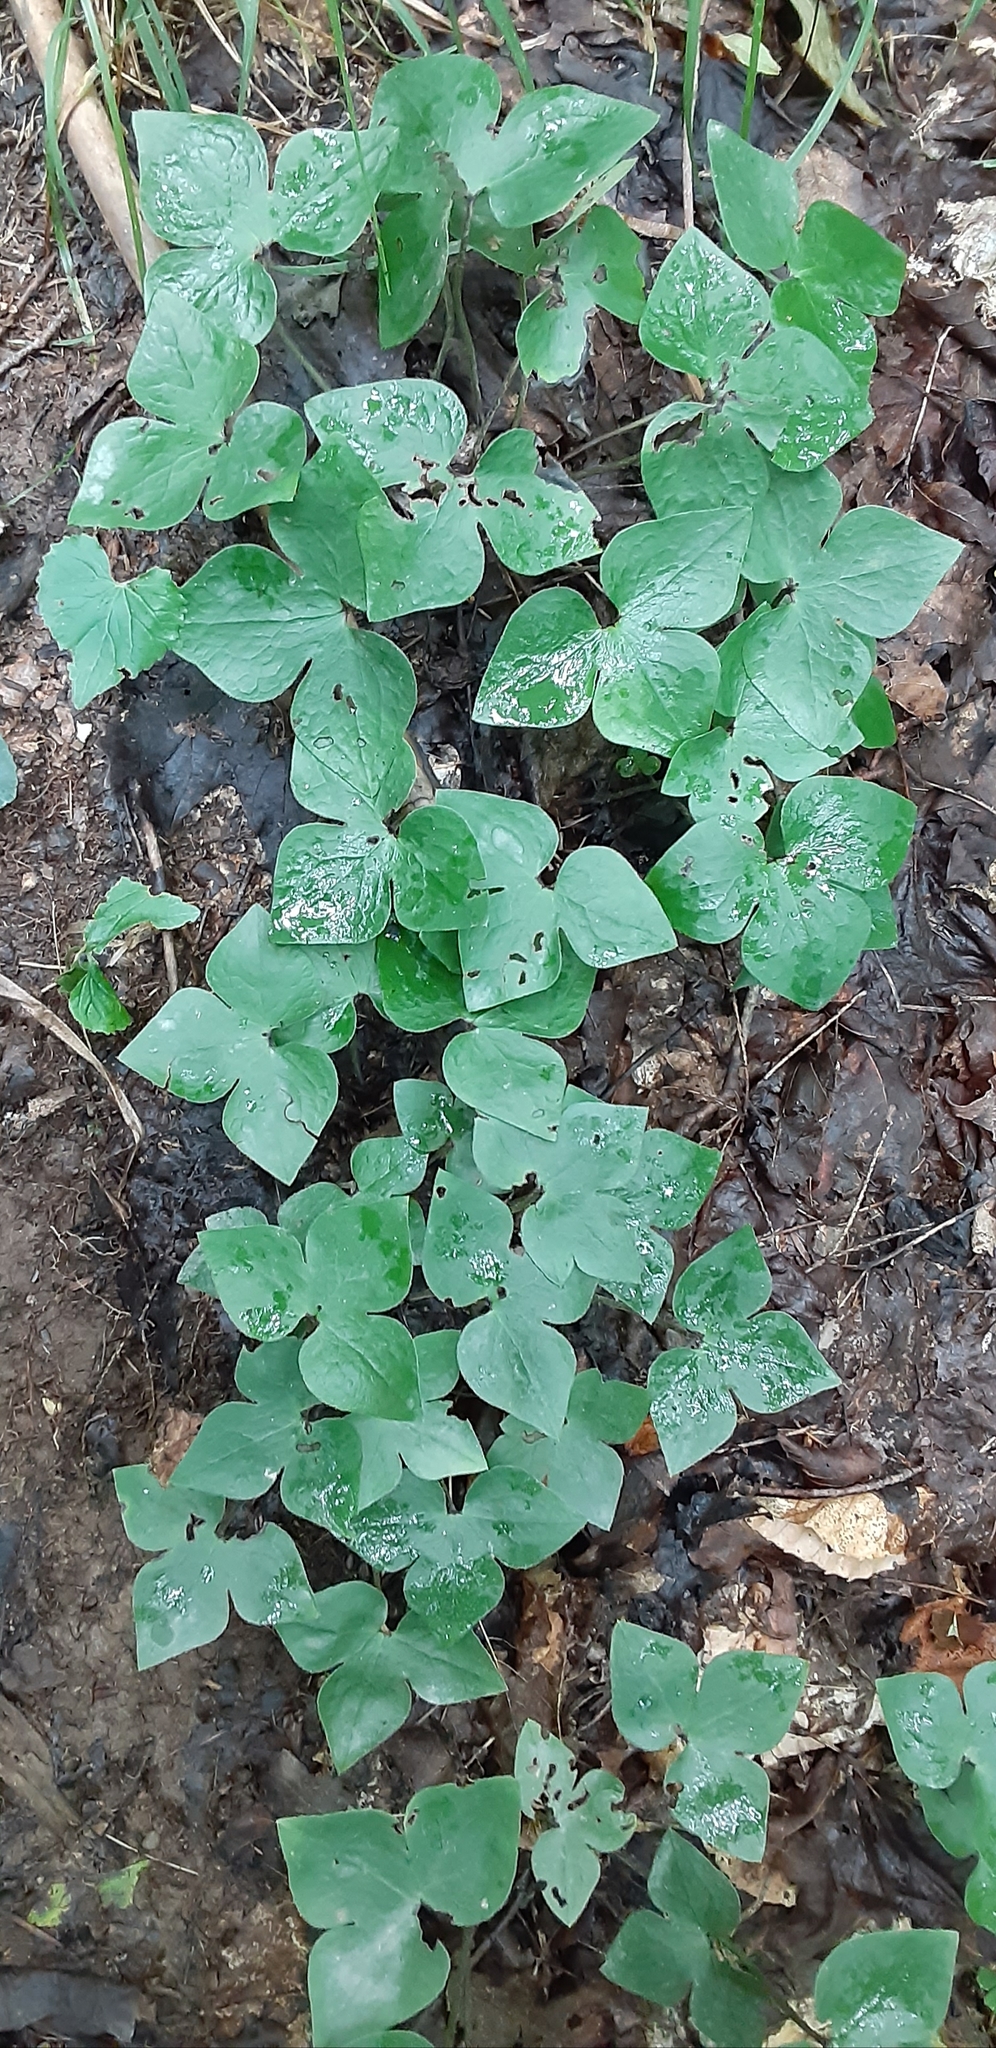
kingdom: Plantae
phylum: Tracheophyta
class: Magnoliopsida
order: Ranunculales
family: Ranunculaceae
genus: Hepatica
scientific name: Hepatica acutiloba
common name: Sharp-lobed hepatica
